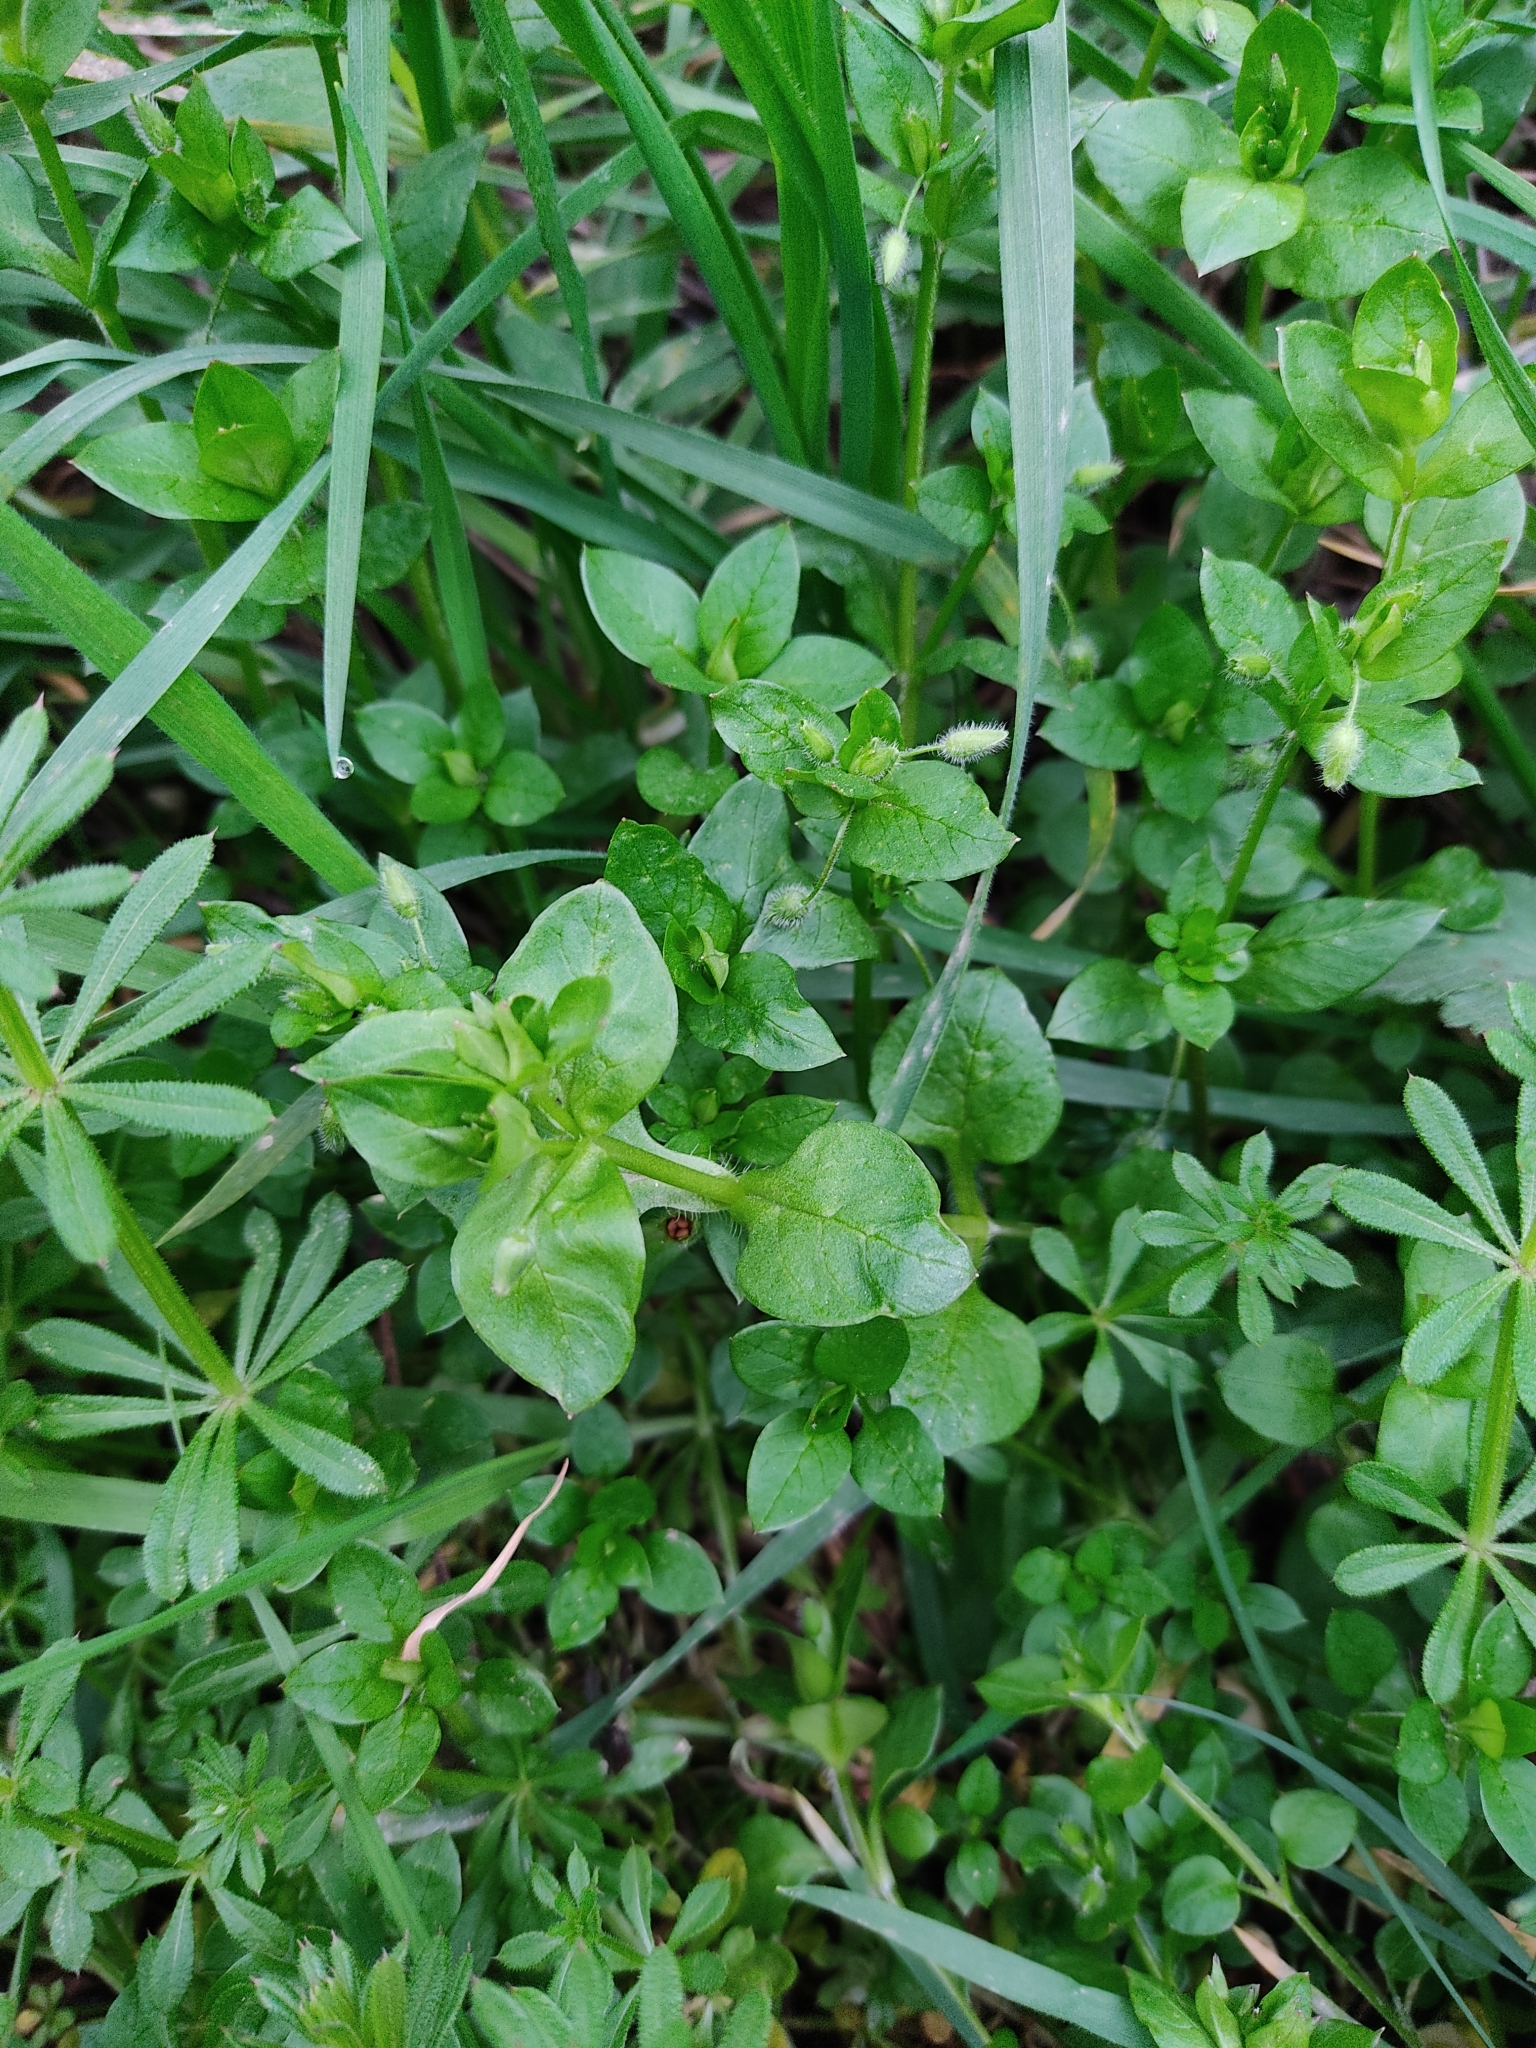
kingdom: Plantae
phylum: Tracheophyta
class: Magnoliopsida
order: Caryophyllales
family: Caryophyllaceae
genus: Stellaria
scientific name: Stellaria media
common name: Common chickweed
